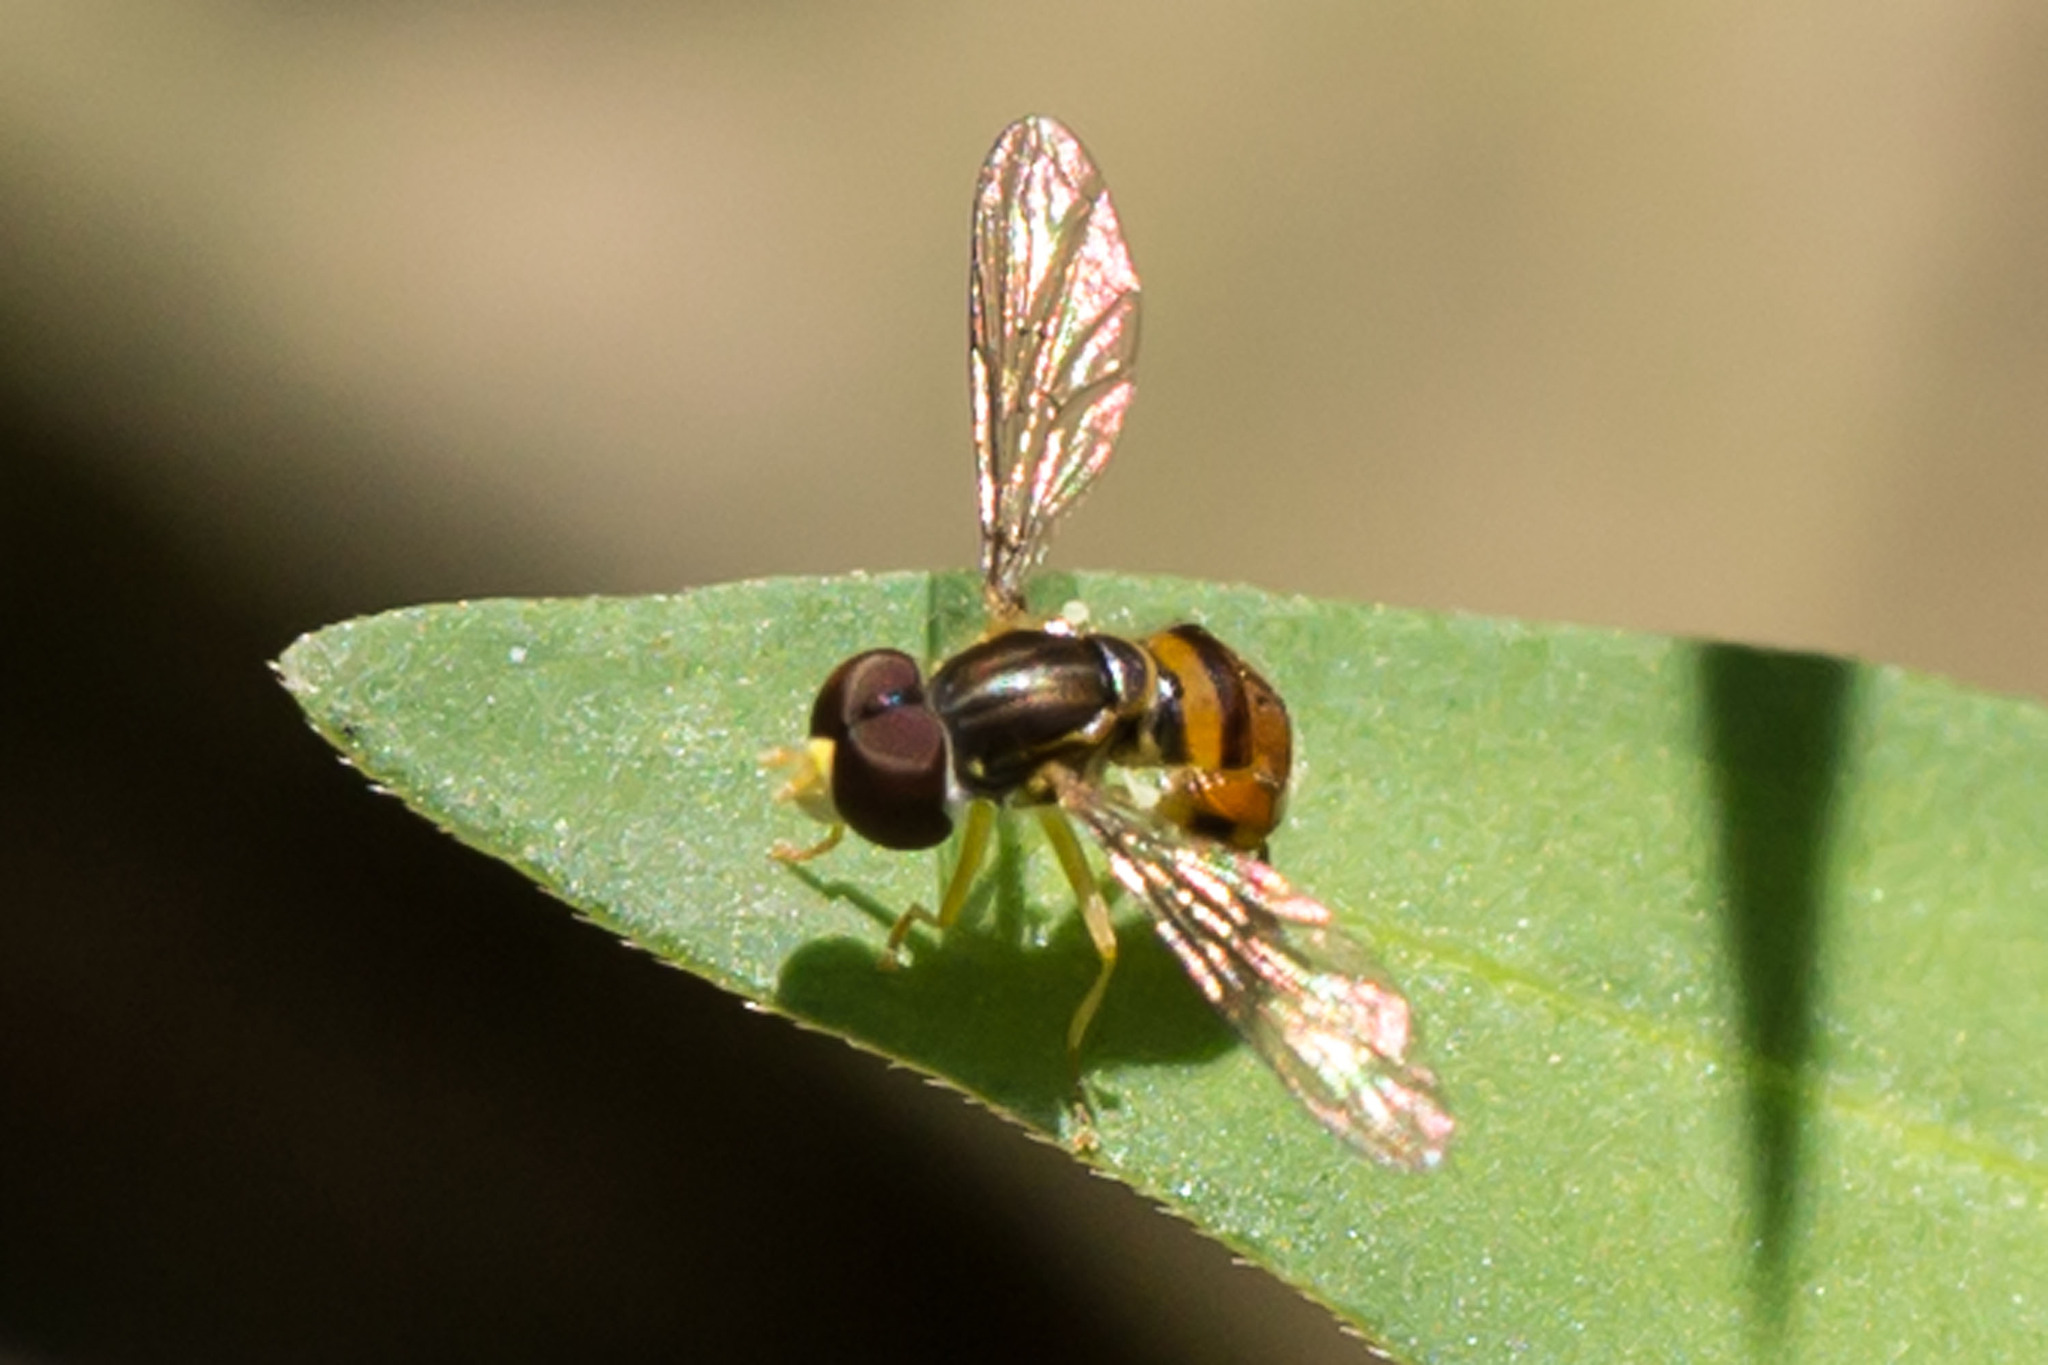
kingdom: Animalia
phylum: Arthropoda
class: Insecta
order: Diptera
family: Syrphidae
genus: Toxomerus
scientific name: Toxomerus boscii
